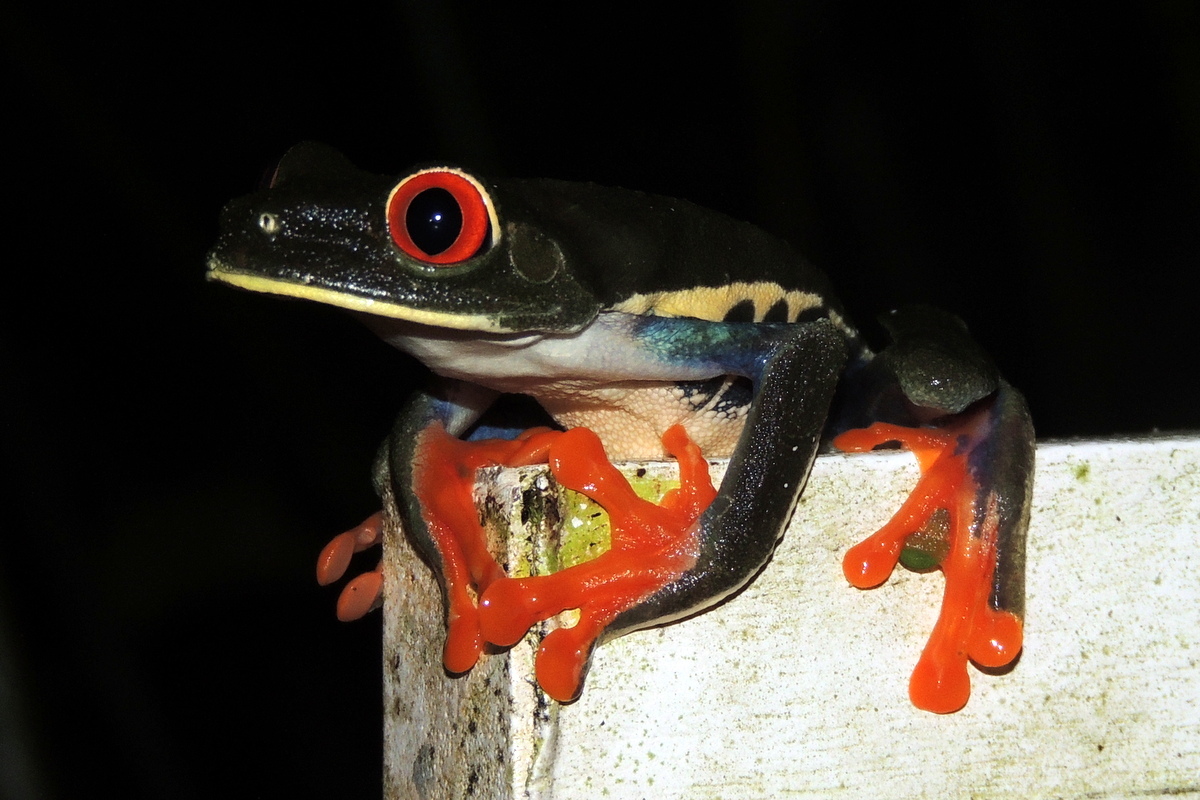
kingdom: Animalia
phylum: Chordata
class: Amphibia
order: Anura
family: Phyllomedusidae
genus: Agalychnis
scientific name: Agalychnis callidryas
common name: Red-eyed treefrog
